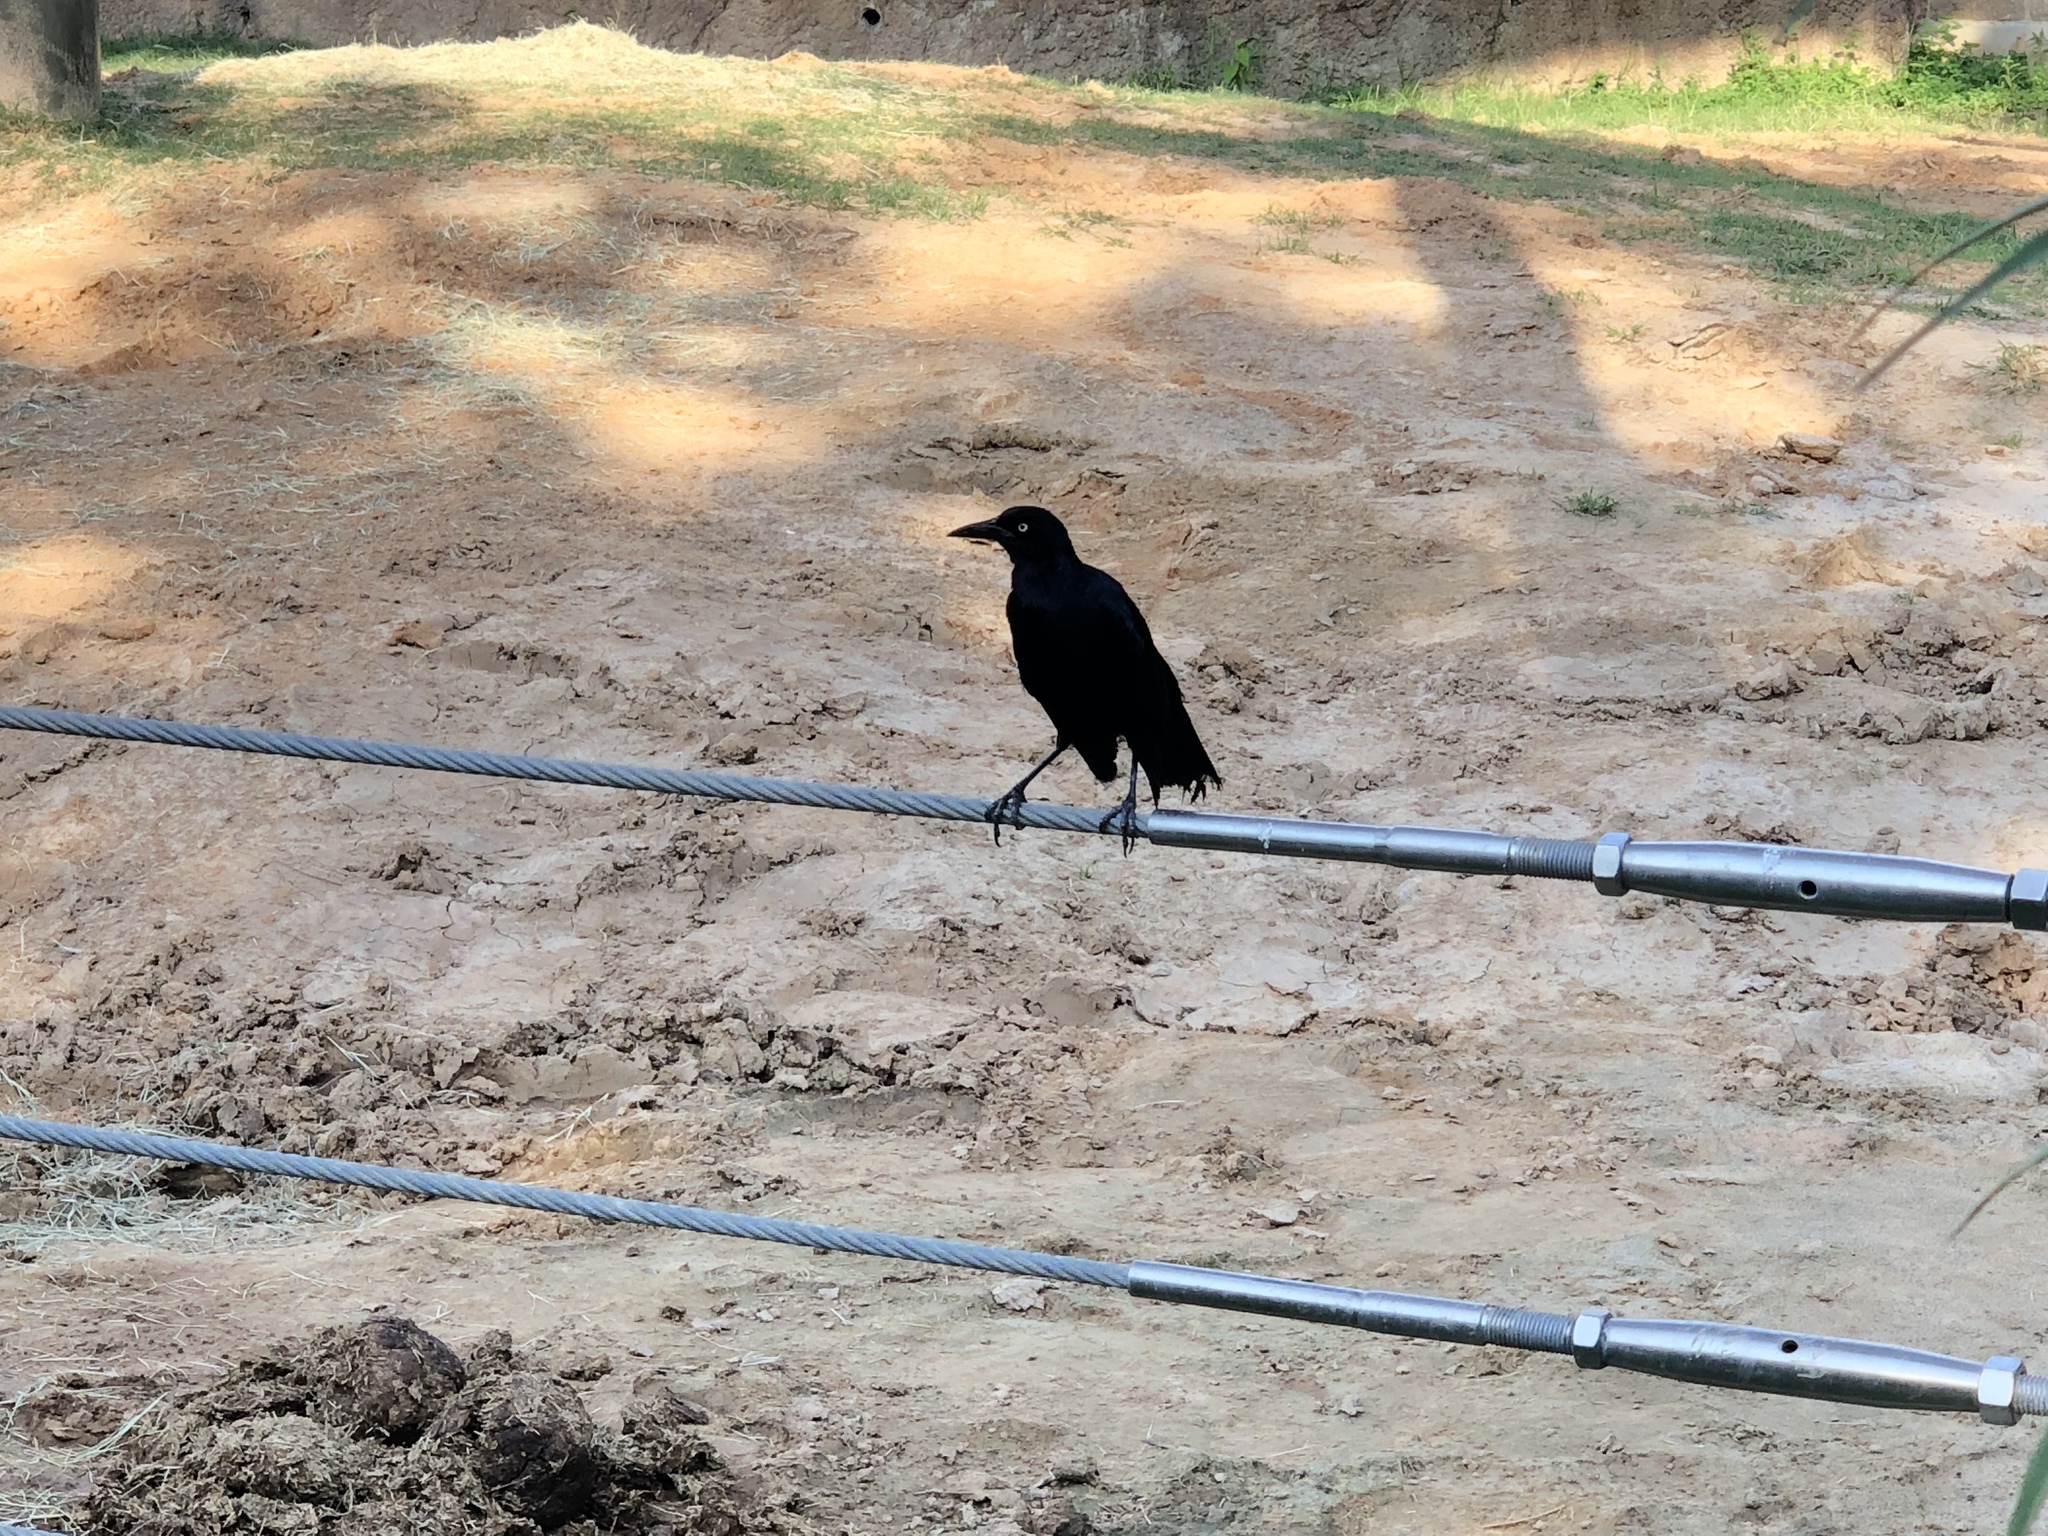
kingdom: Animalia
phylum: Chordata
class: Aves
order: Passeriformes
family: Icteridae
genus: Quiscalus
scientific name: Quiscalus mexicanus
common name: Great-tailed grackle
